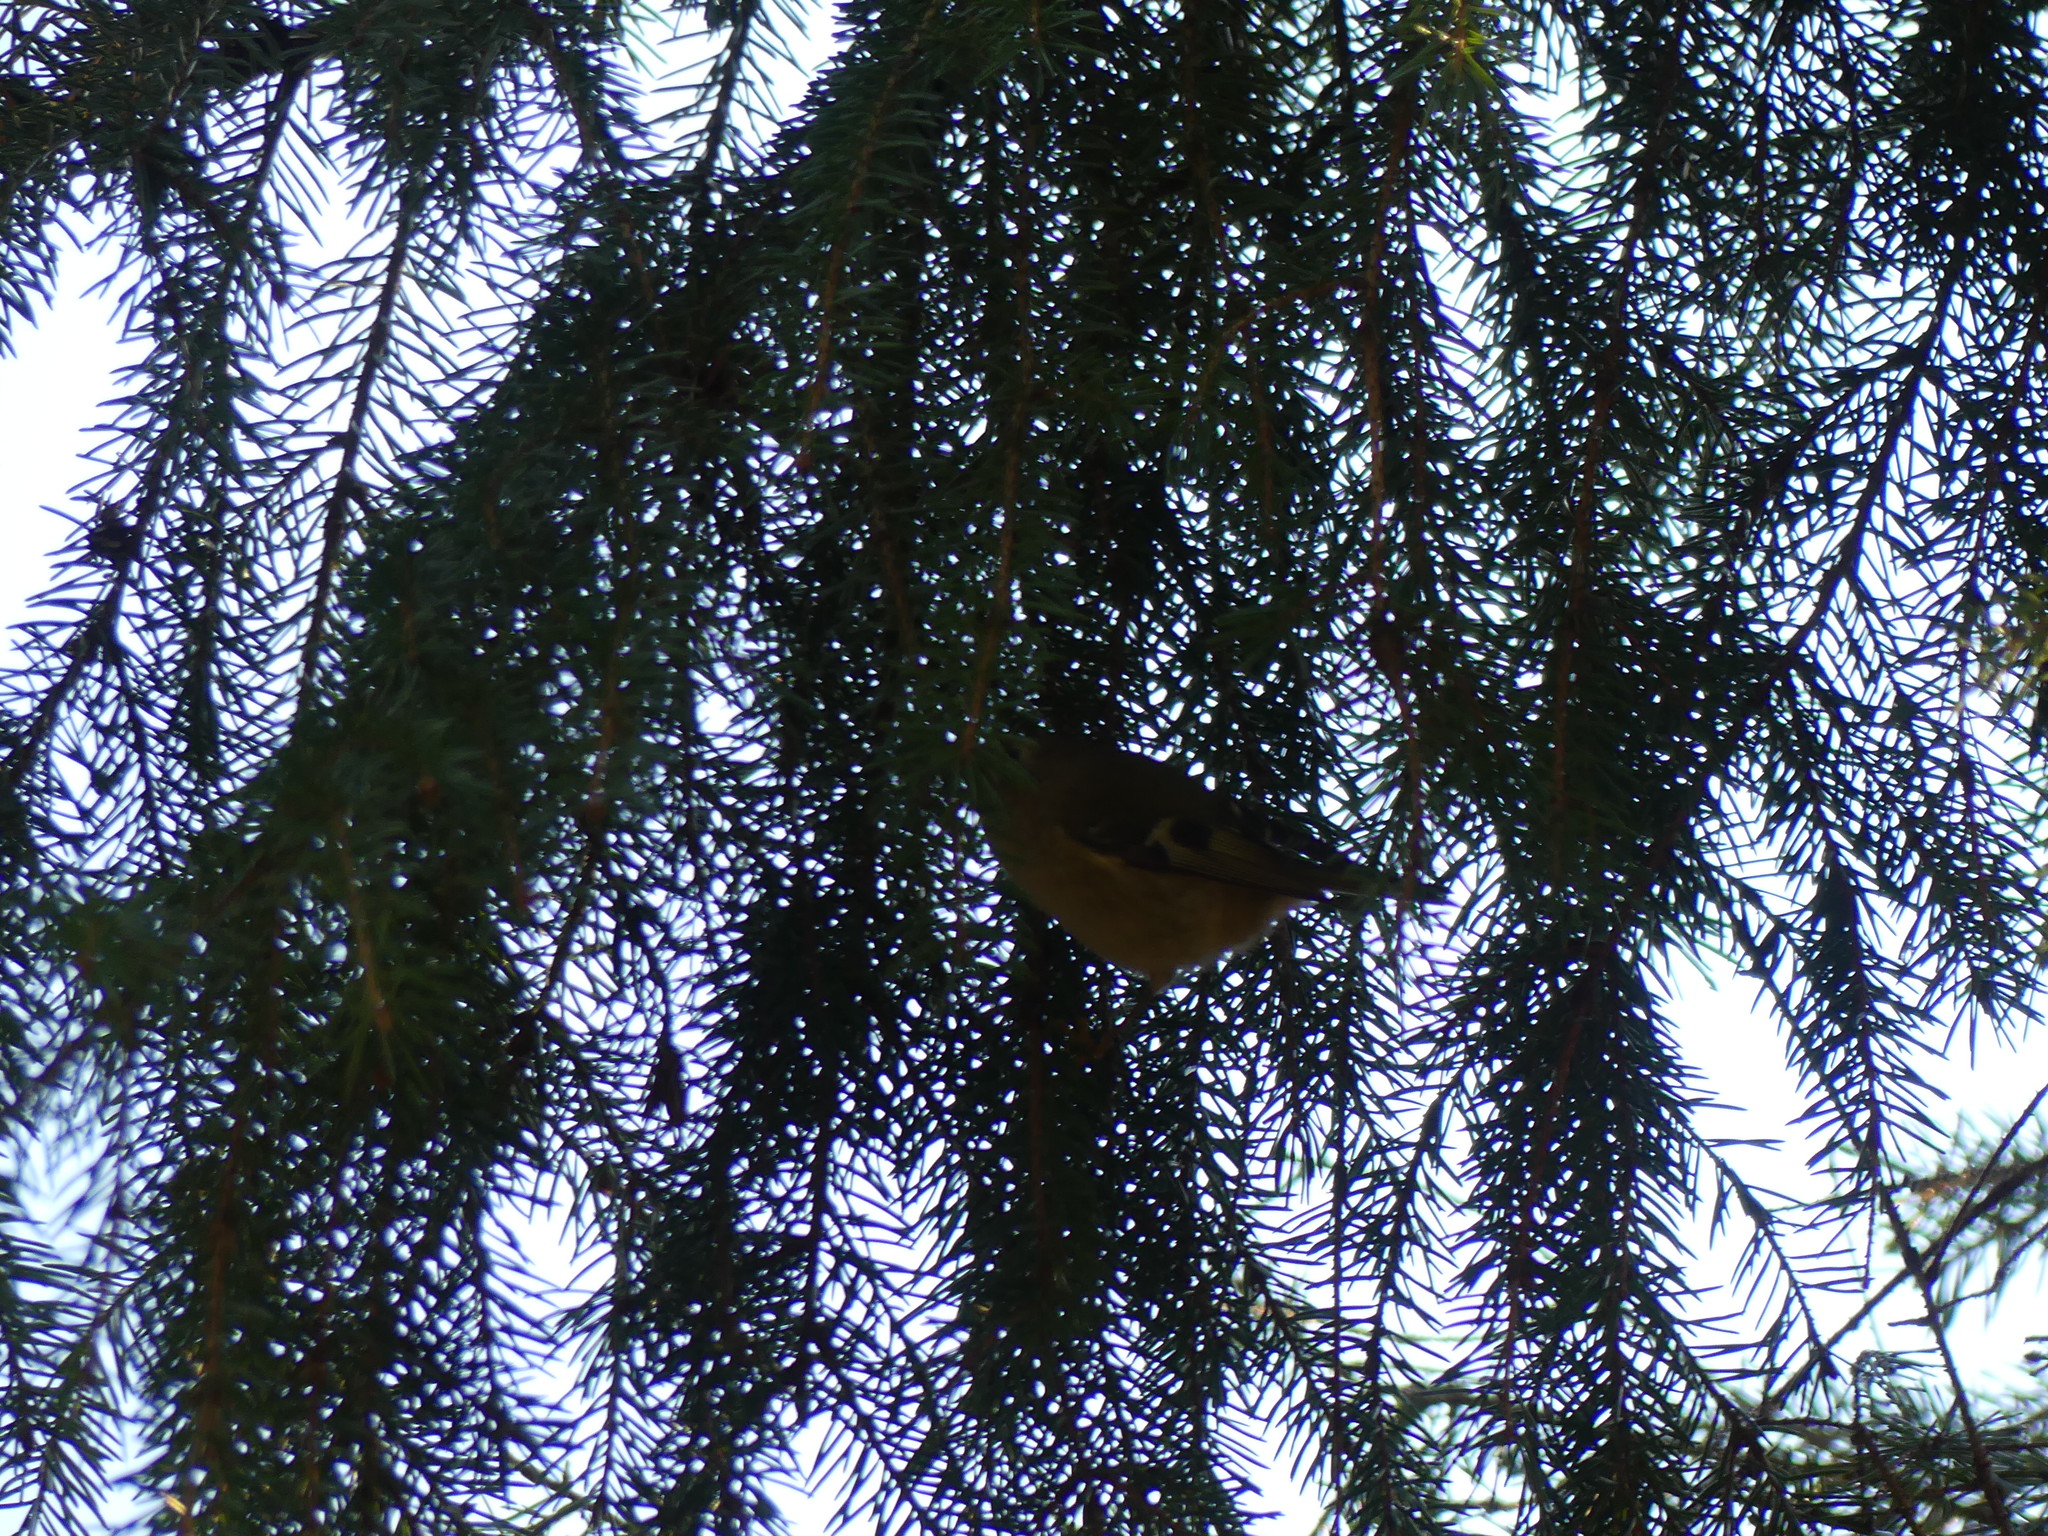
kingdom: Animalia
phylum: Chordata
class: Aves
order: Passeriformes
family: Regulidae
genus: Regulus
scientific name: Regulus regulus
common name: Goldcrest
